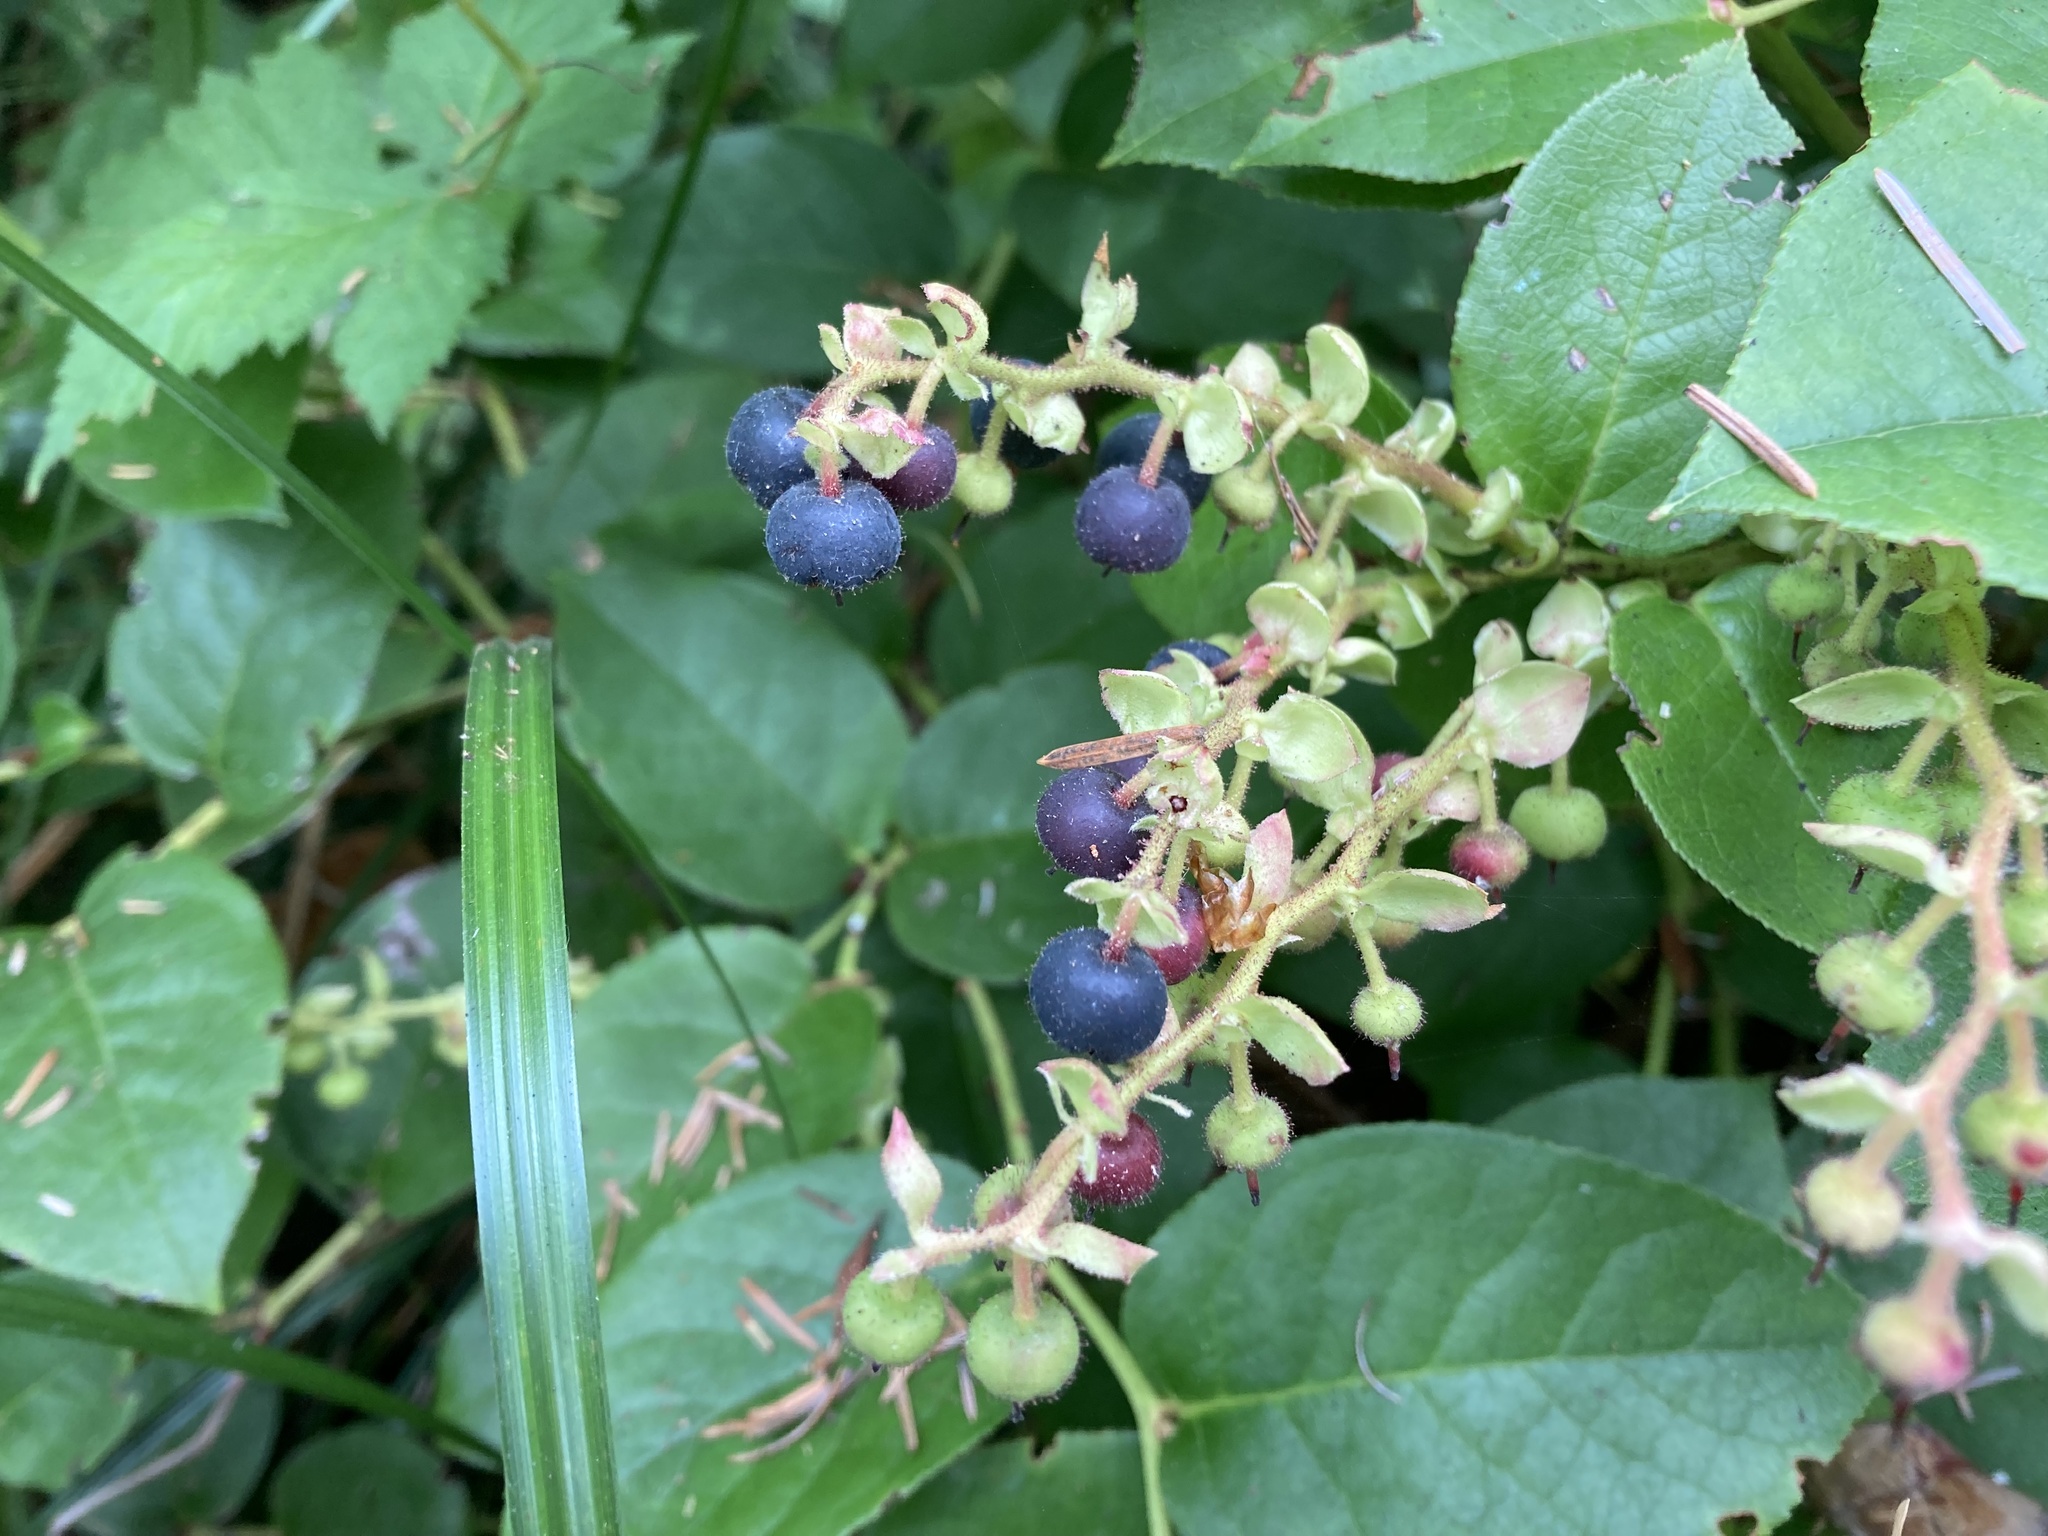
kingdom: Plantae
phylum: Tracheophyta
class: Magnoliopsida
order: Ericales
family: Ericaceae
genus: Gaultheria
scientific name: Gaultheria shallon
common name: Shallon
